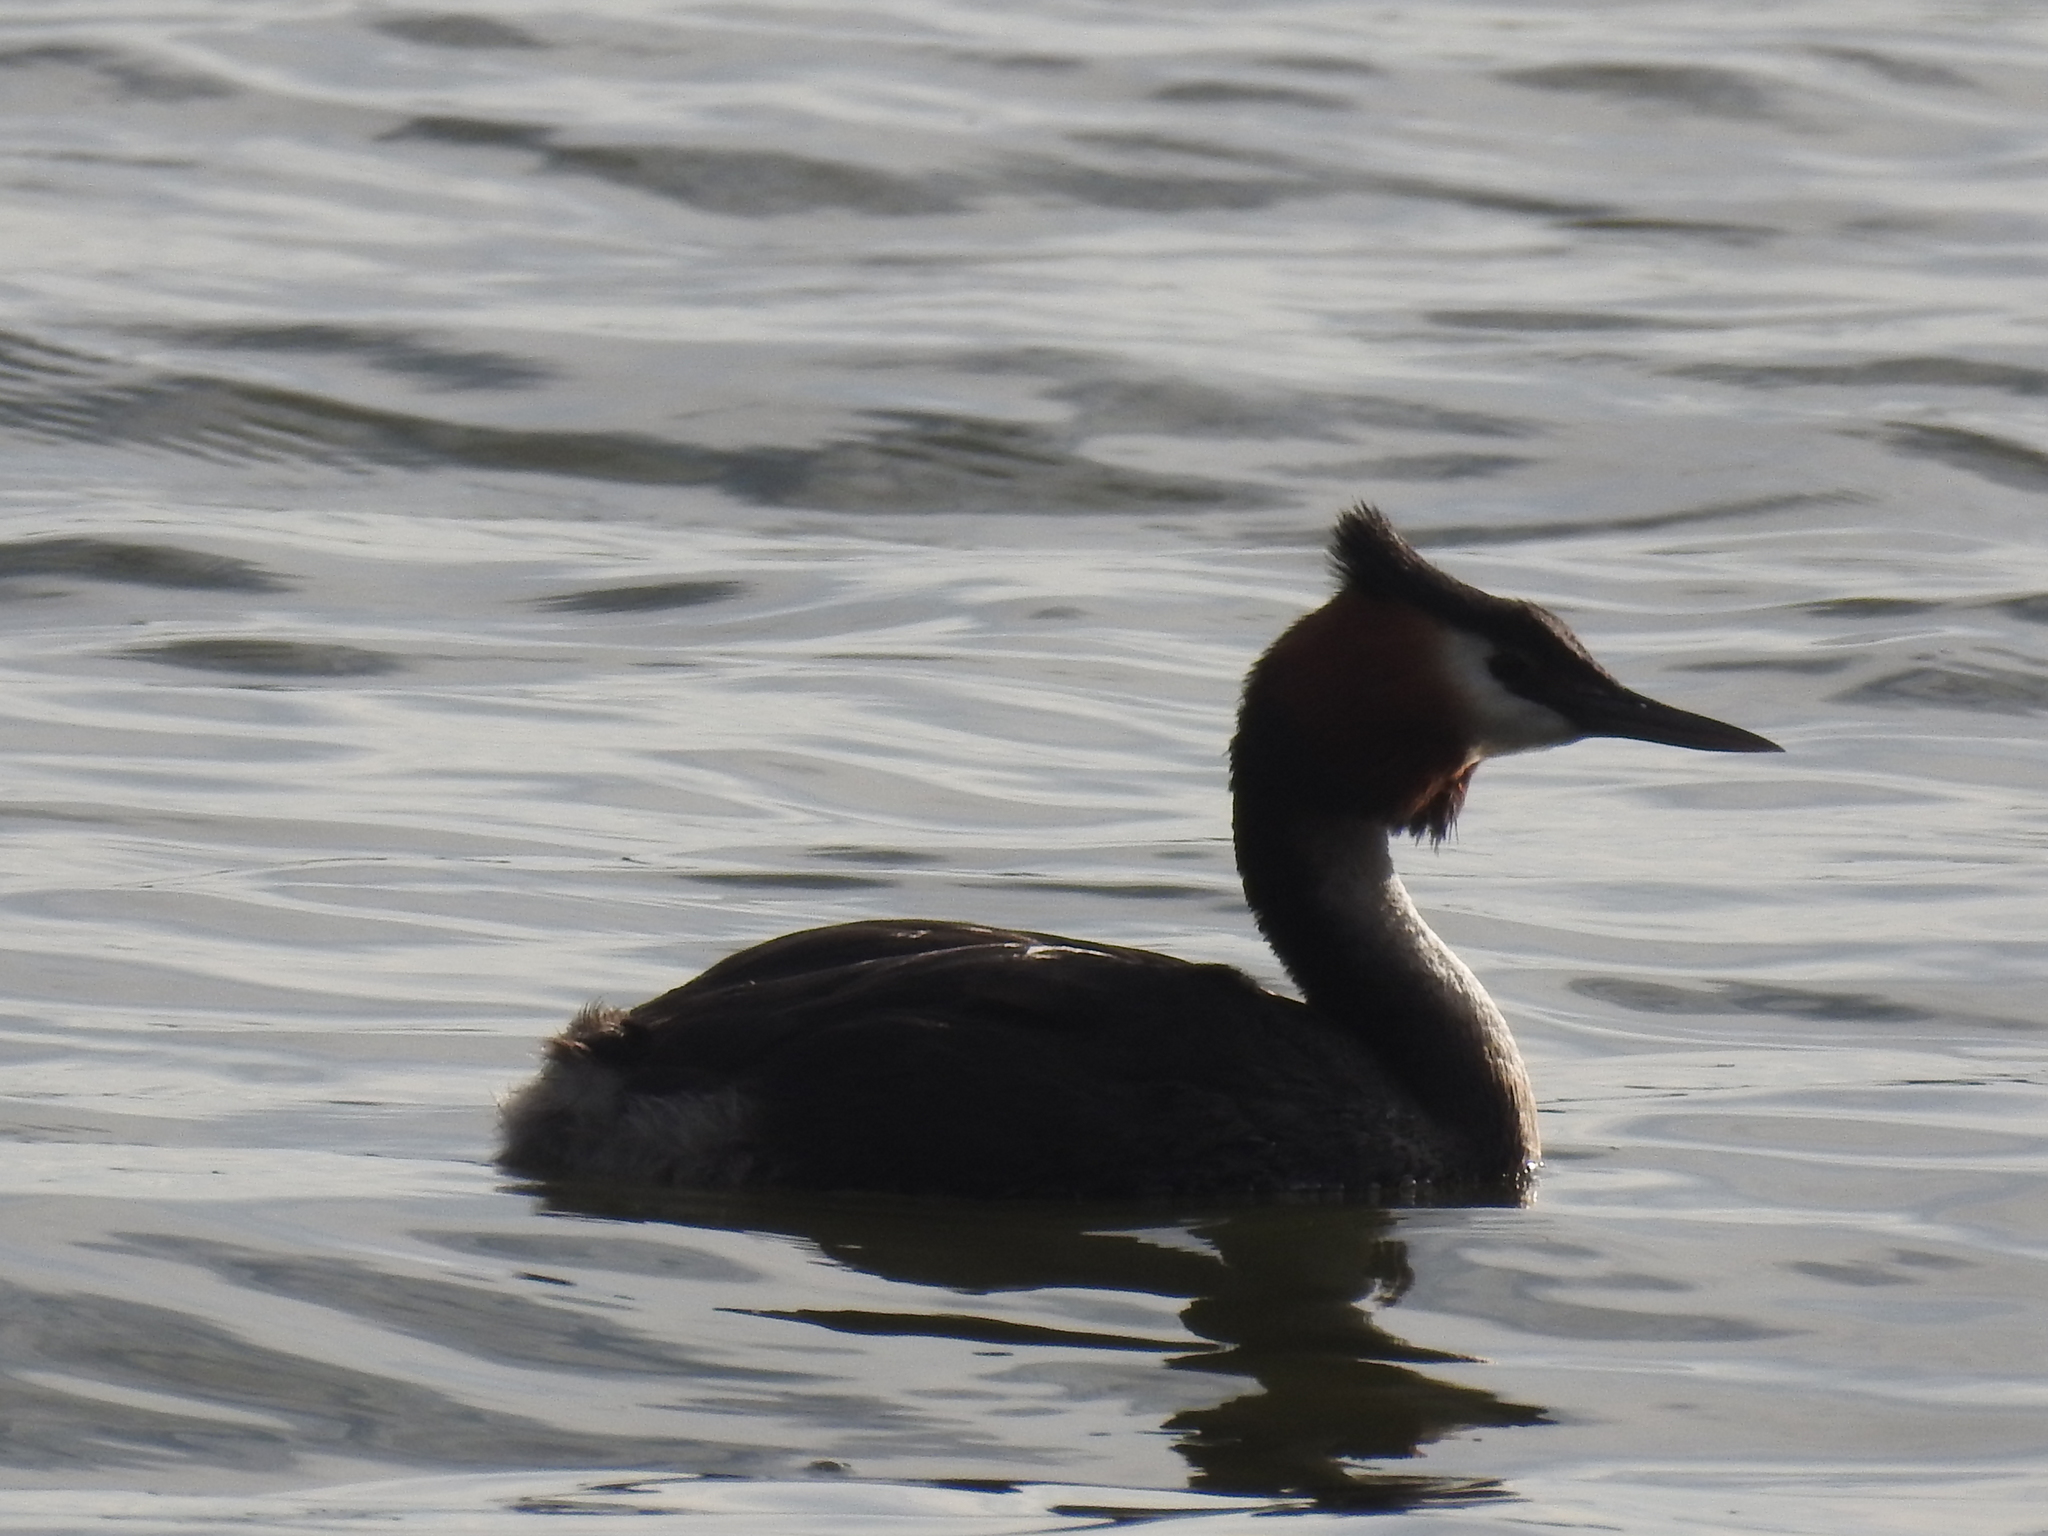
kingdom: Animalia
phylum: Chordata
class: Aves
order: Podicipediformes
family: Podicipedidae
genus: Podiceps
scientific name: Podiceps cristatus
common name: Great crested grebe
